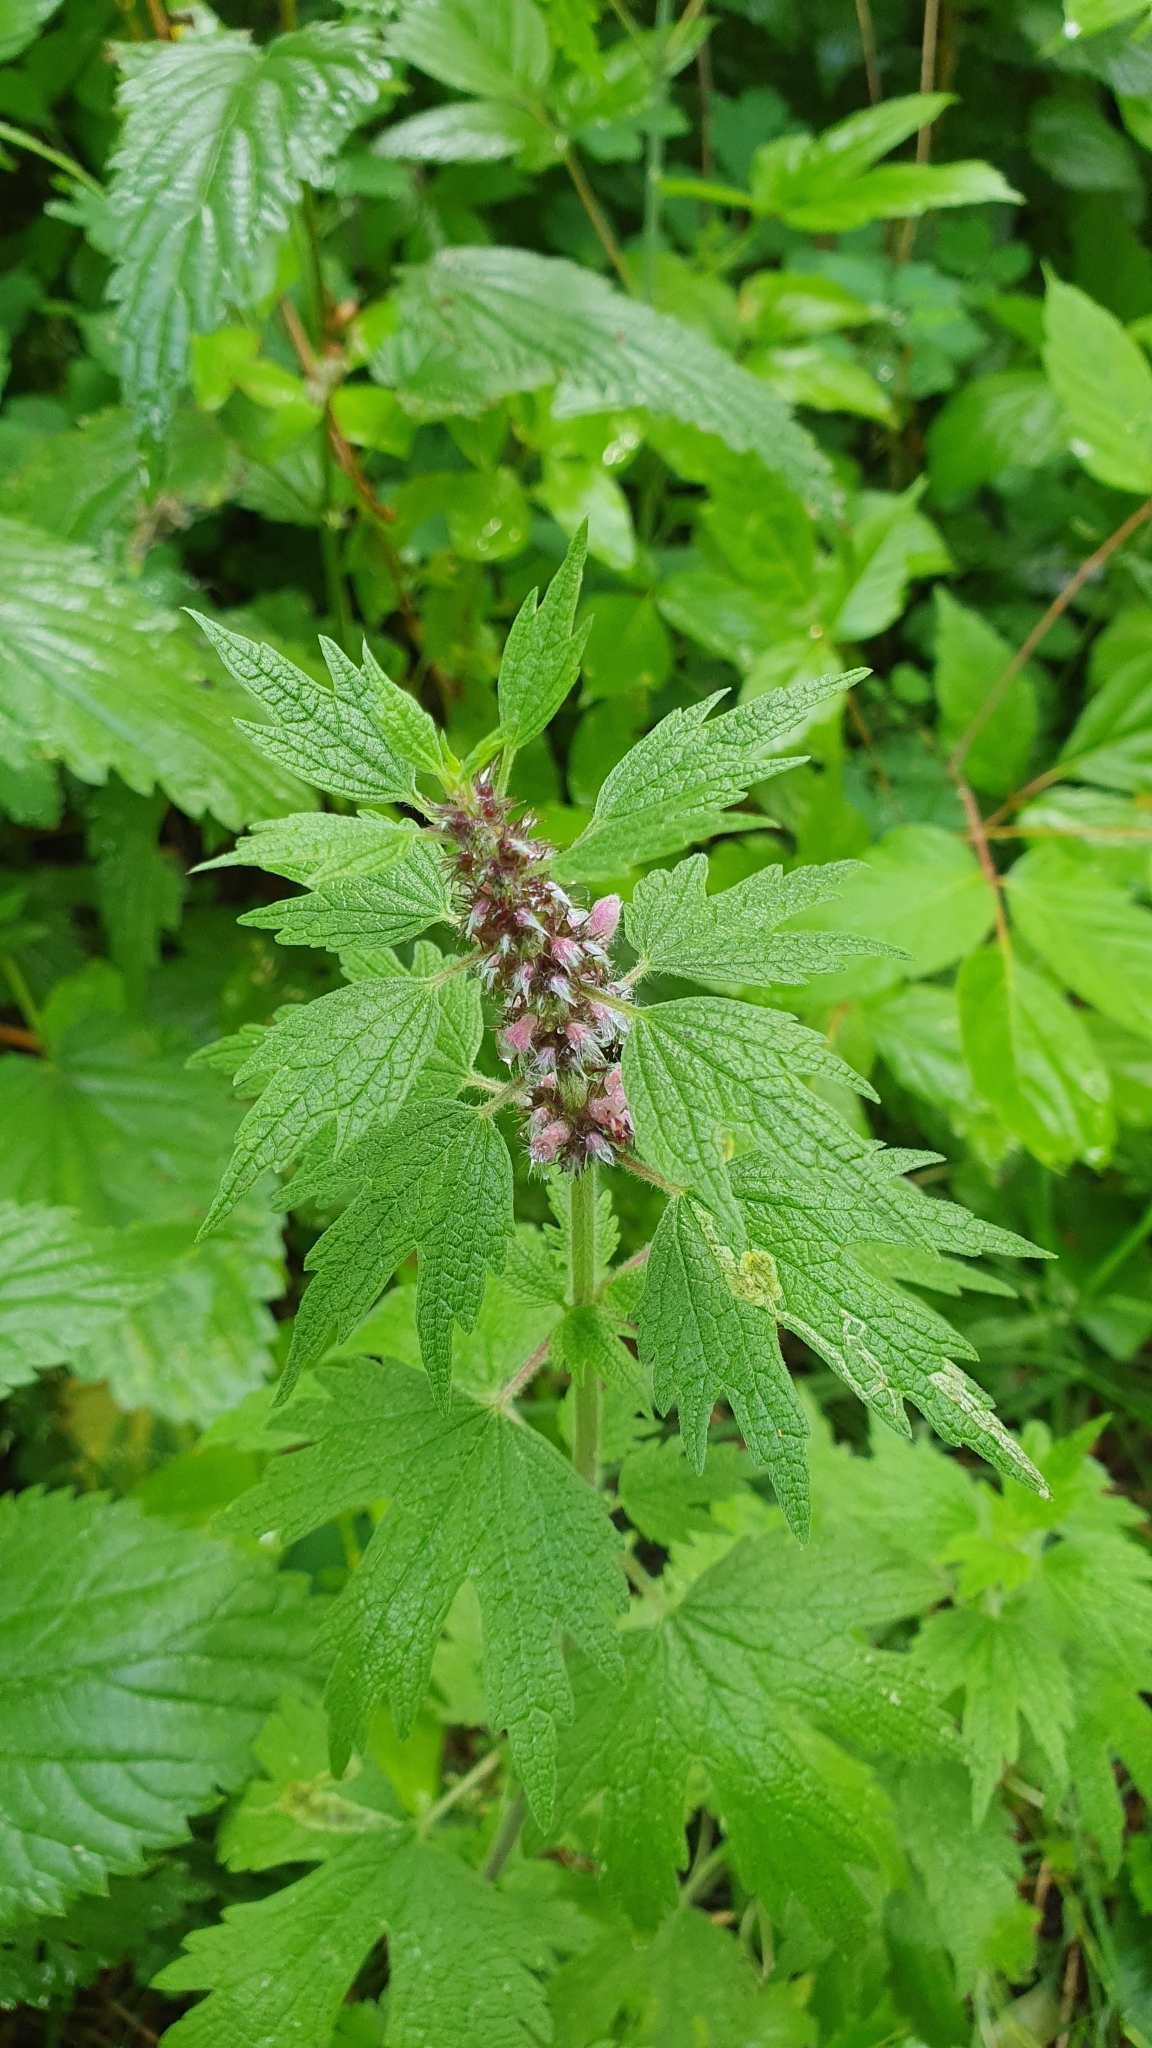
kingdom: Plantae
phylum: Tracheophyta
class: Magnoliopsida
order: Lamiales
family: Lamiaceae
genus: Leonurus
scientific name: Leonurus quinquelobatus
